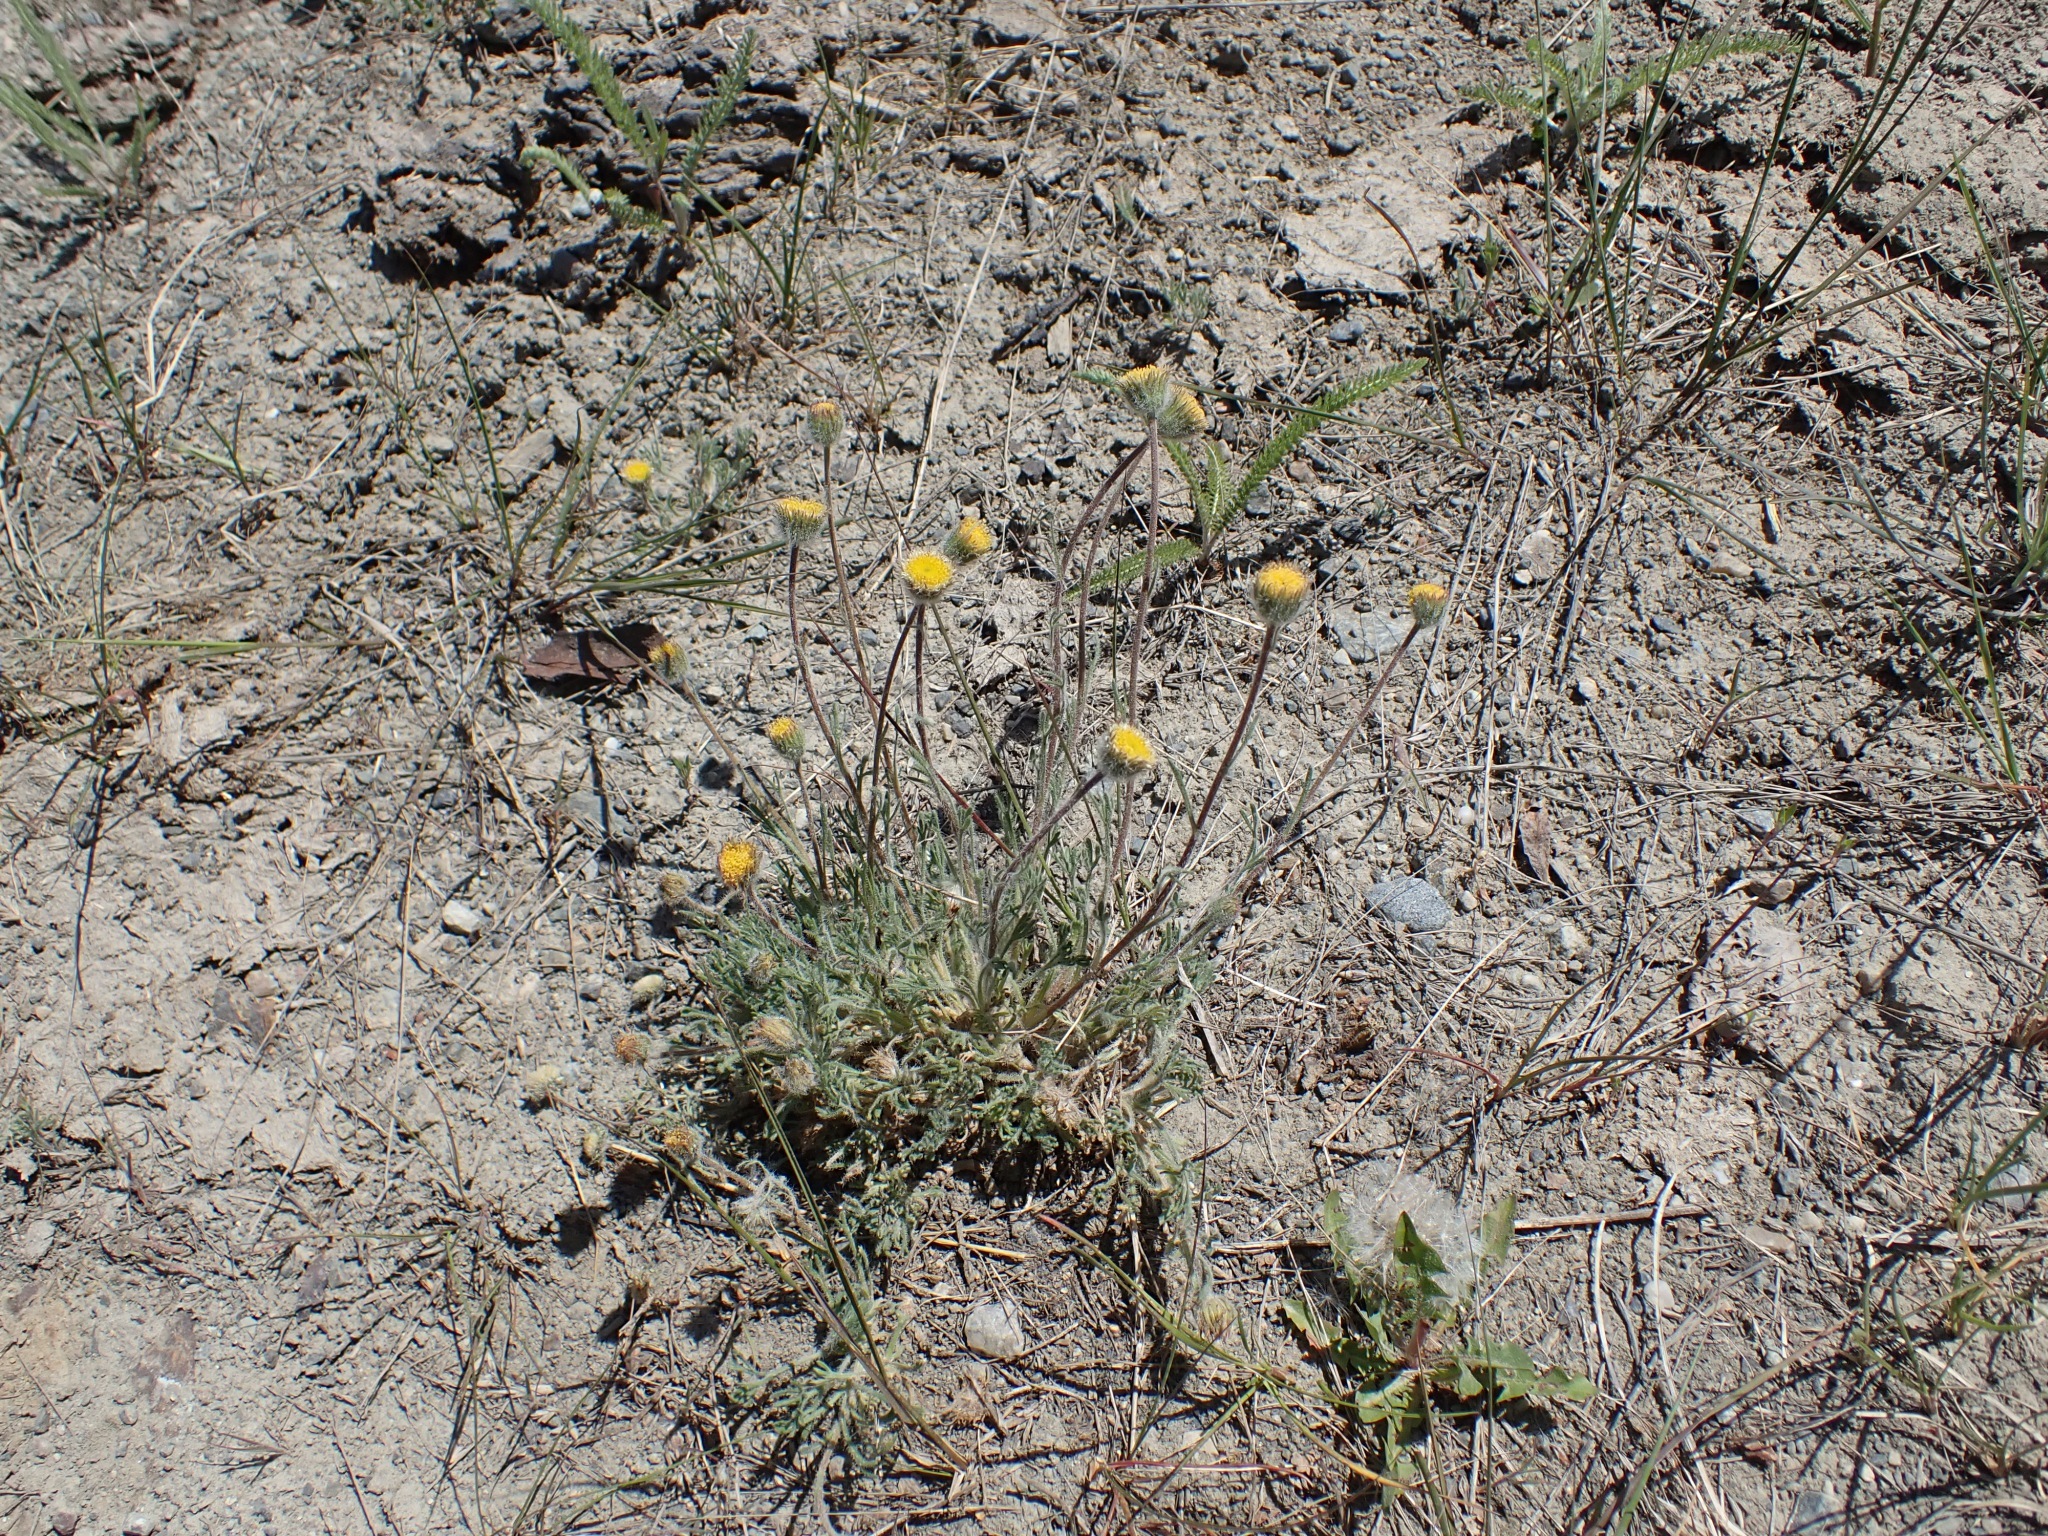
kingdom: Plantae
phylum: Tracheophyta
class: Magnoliopsida
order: Asterales
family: Asteraceae
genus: Erigeron
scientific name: Erigeron compositus
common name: Dwarf mountain fleabane
